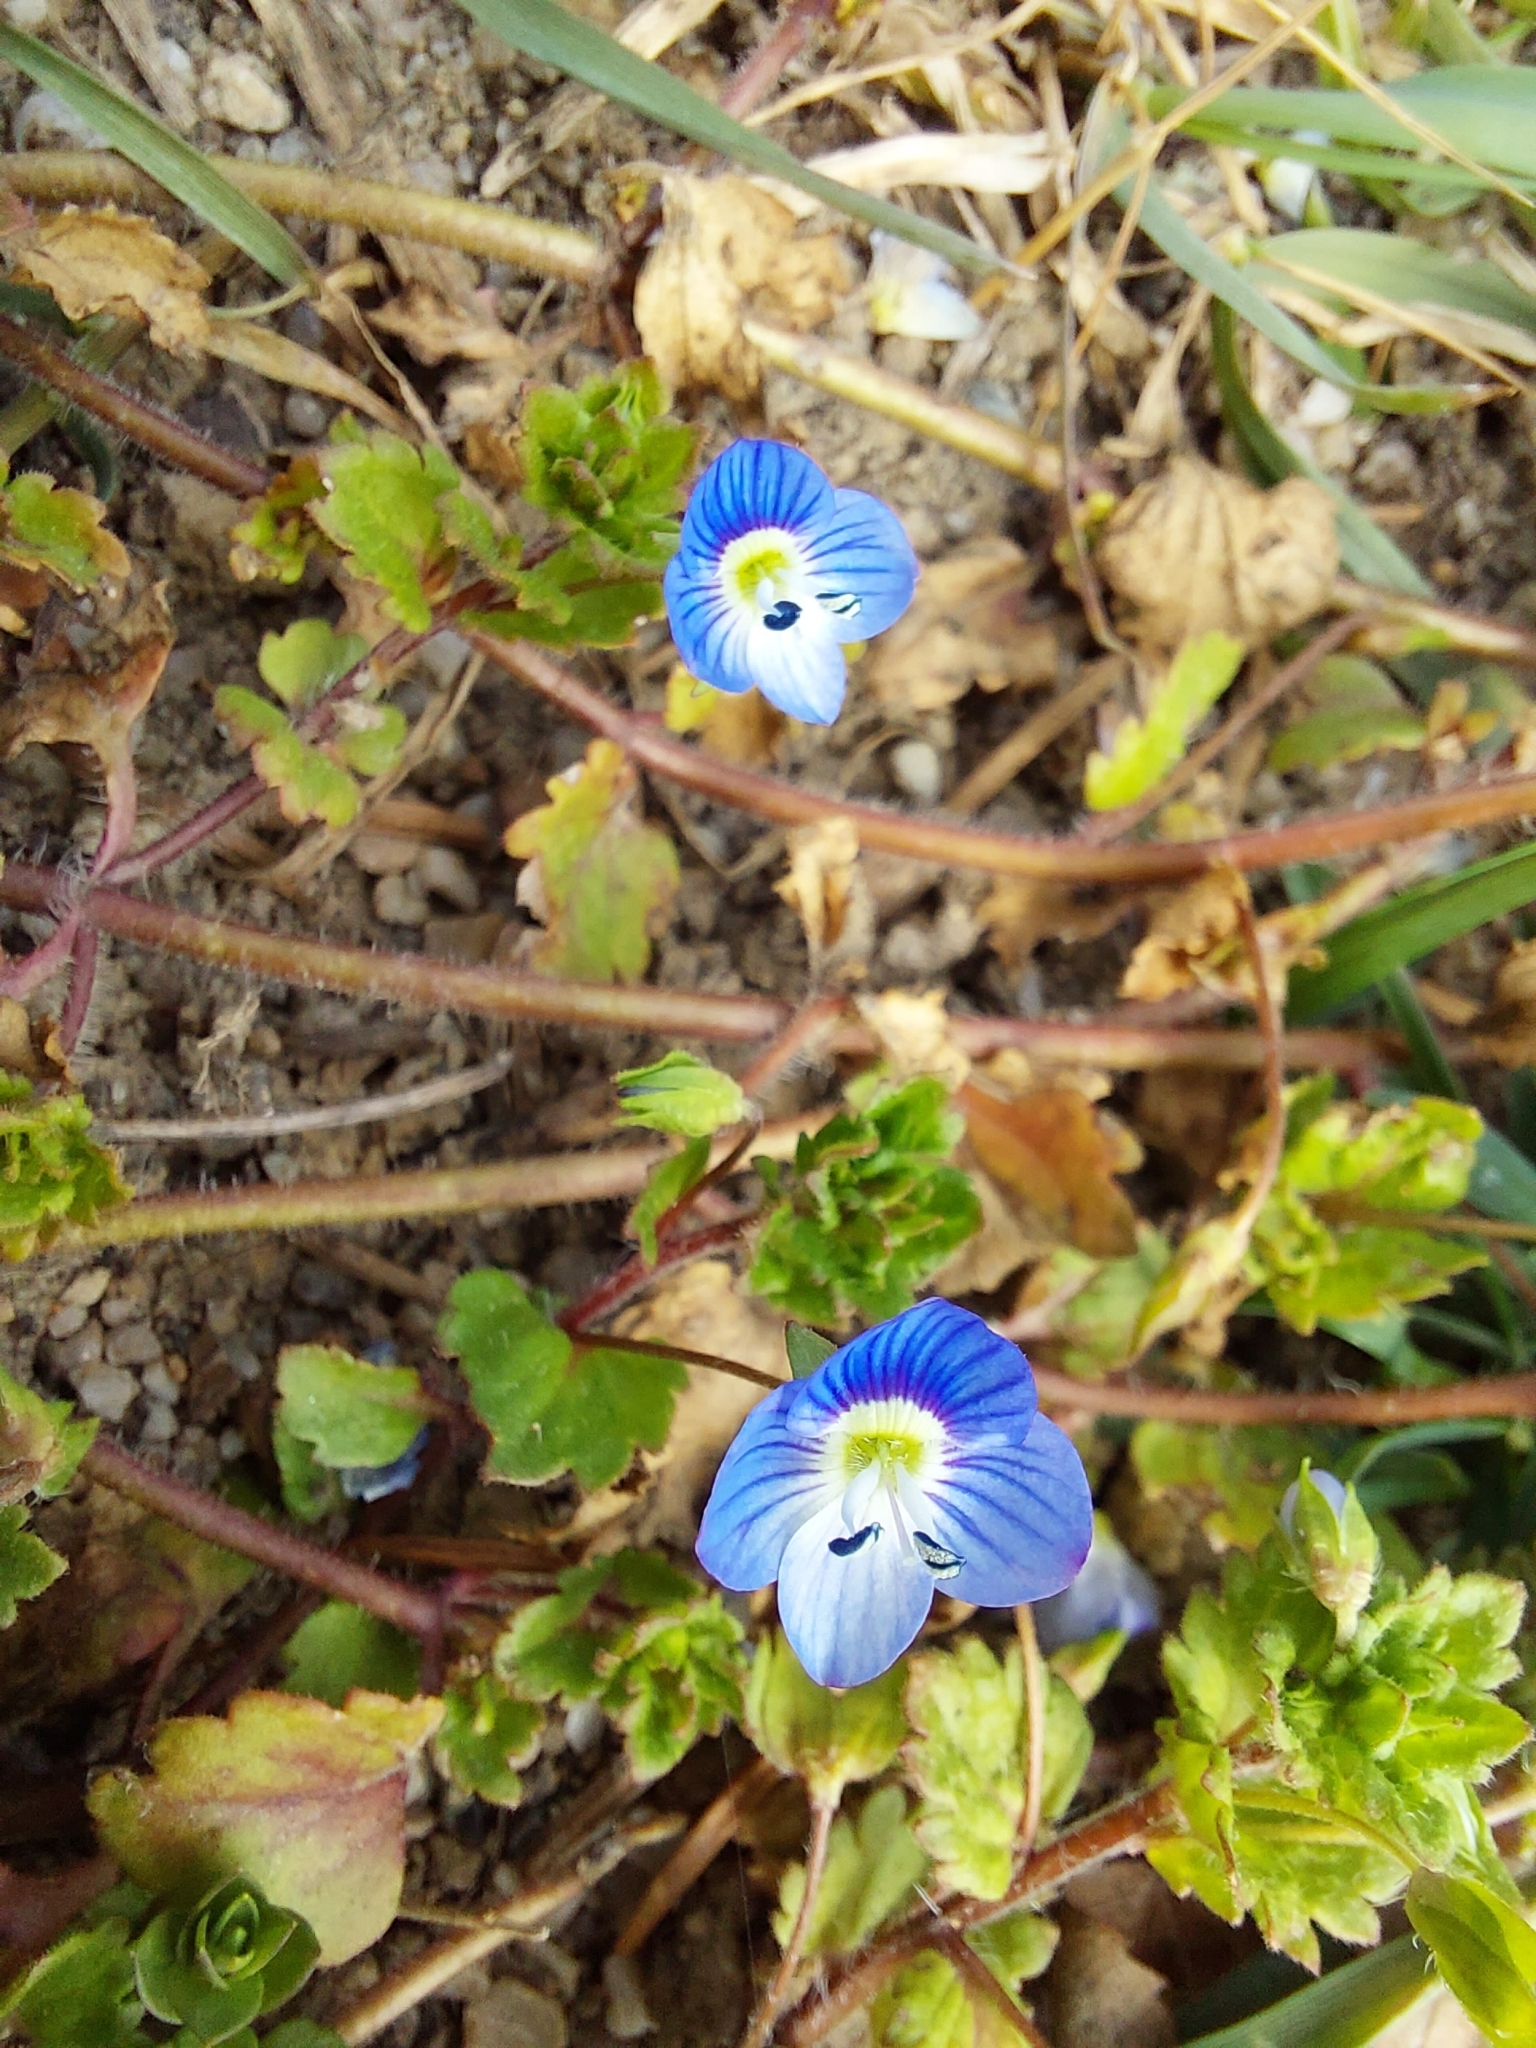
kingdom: Plantae
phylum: Tracheophyta
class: Magnoliopsida
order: Lamiales
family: Plantaginaceae
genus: Veronica
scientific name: Veronica persica
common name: Common field-speedwell
